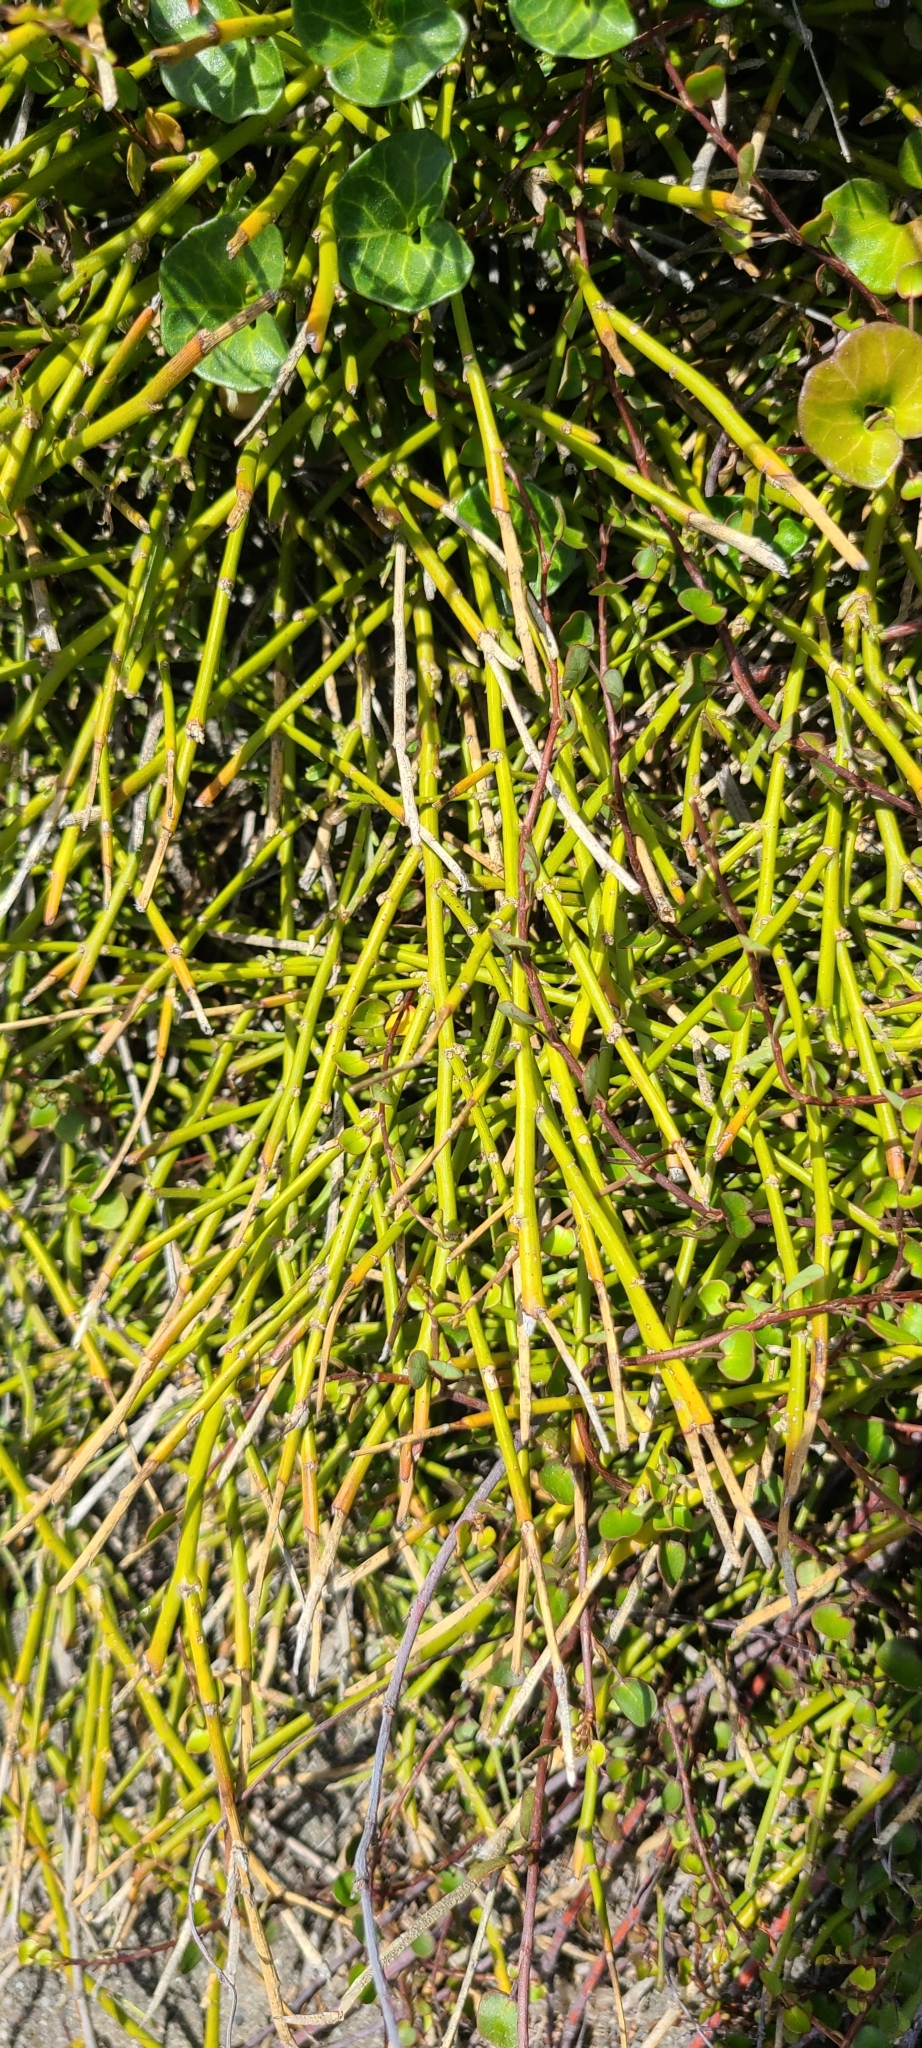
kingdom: Plantae
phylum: Tracheophyta
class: Magnoliopsida
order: Fabales
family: Fabaceae
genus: Carmichaelia
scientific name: Carmichaelia appressa
